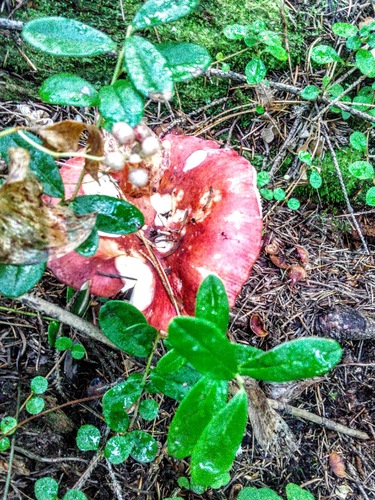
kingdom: Fungi
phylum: Basidiomycota
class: Agaricomycetes
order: Russulales
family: Russulaceae
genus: Russula
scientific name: Russula sanguinea
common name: Bloody brittlegill
